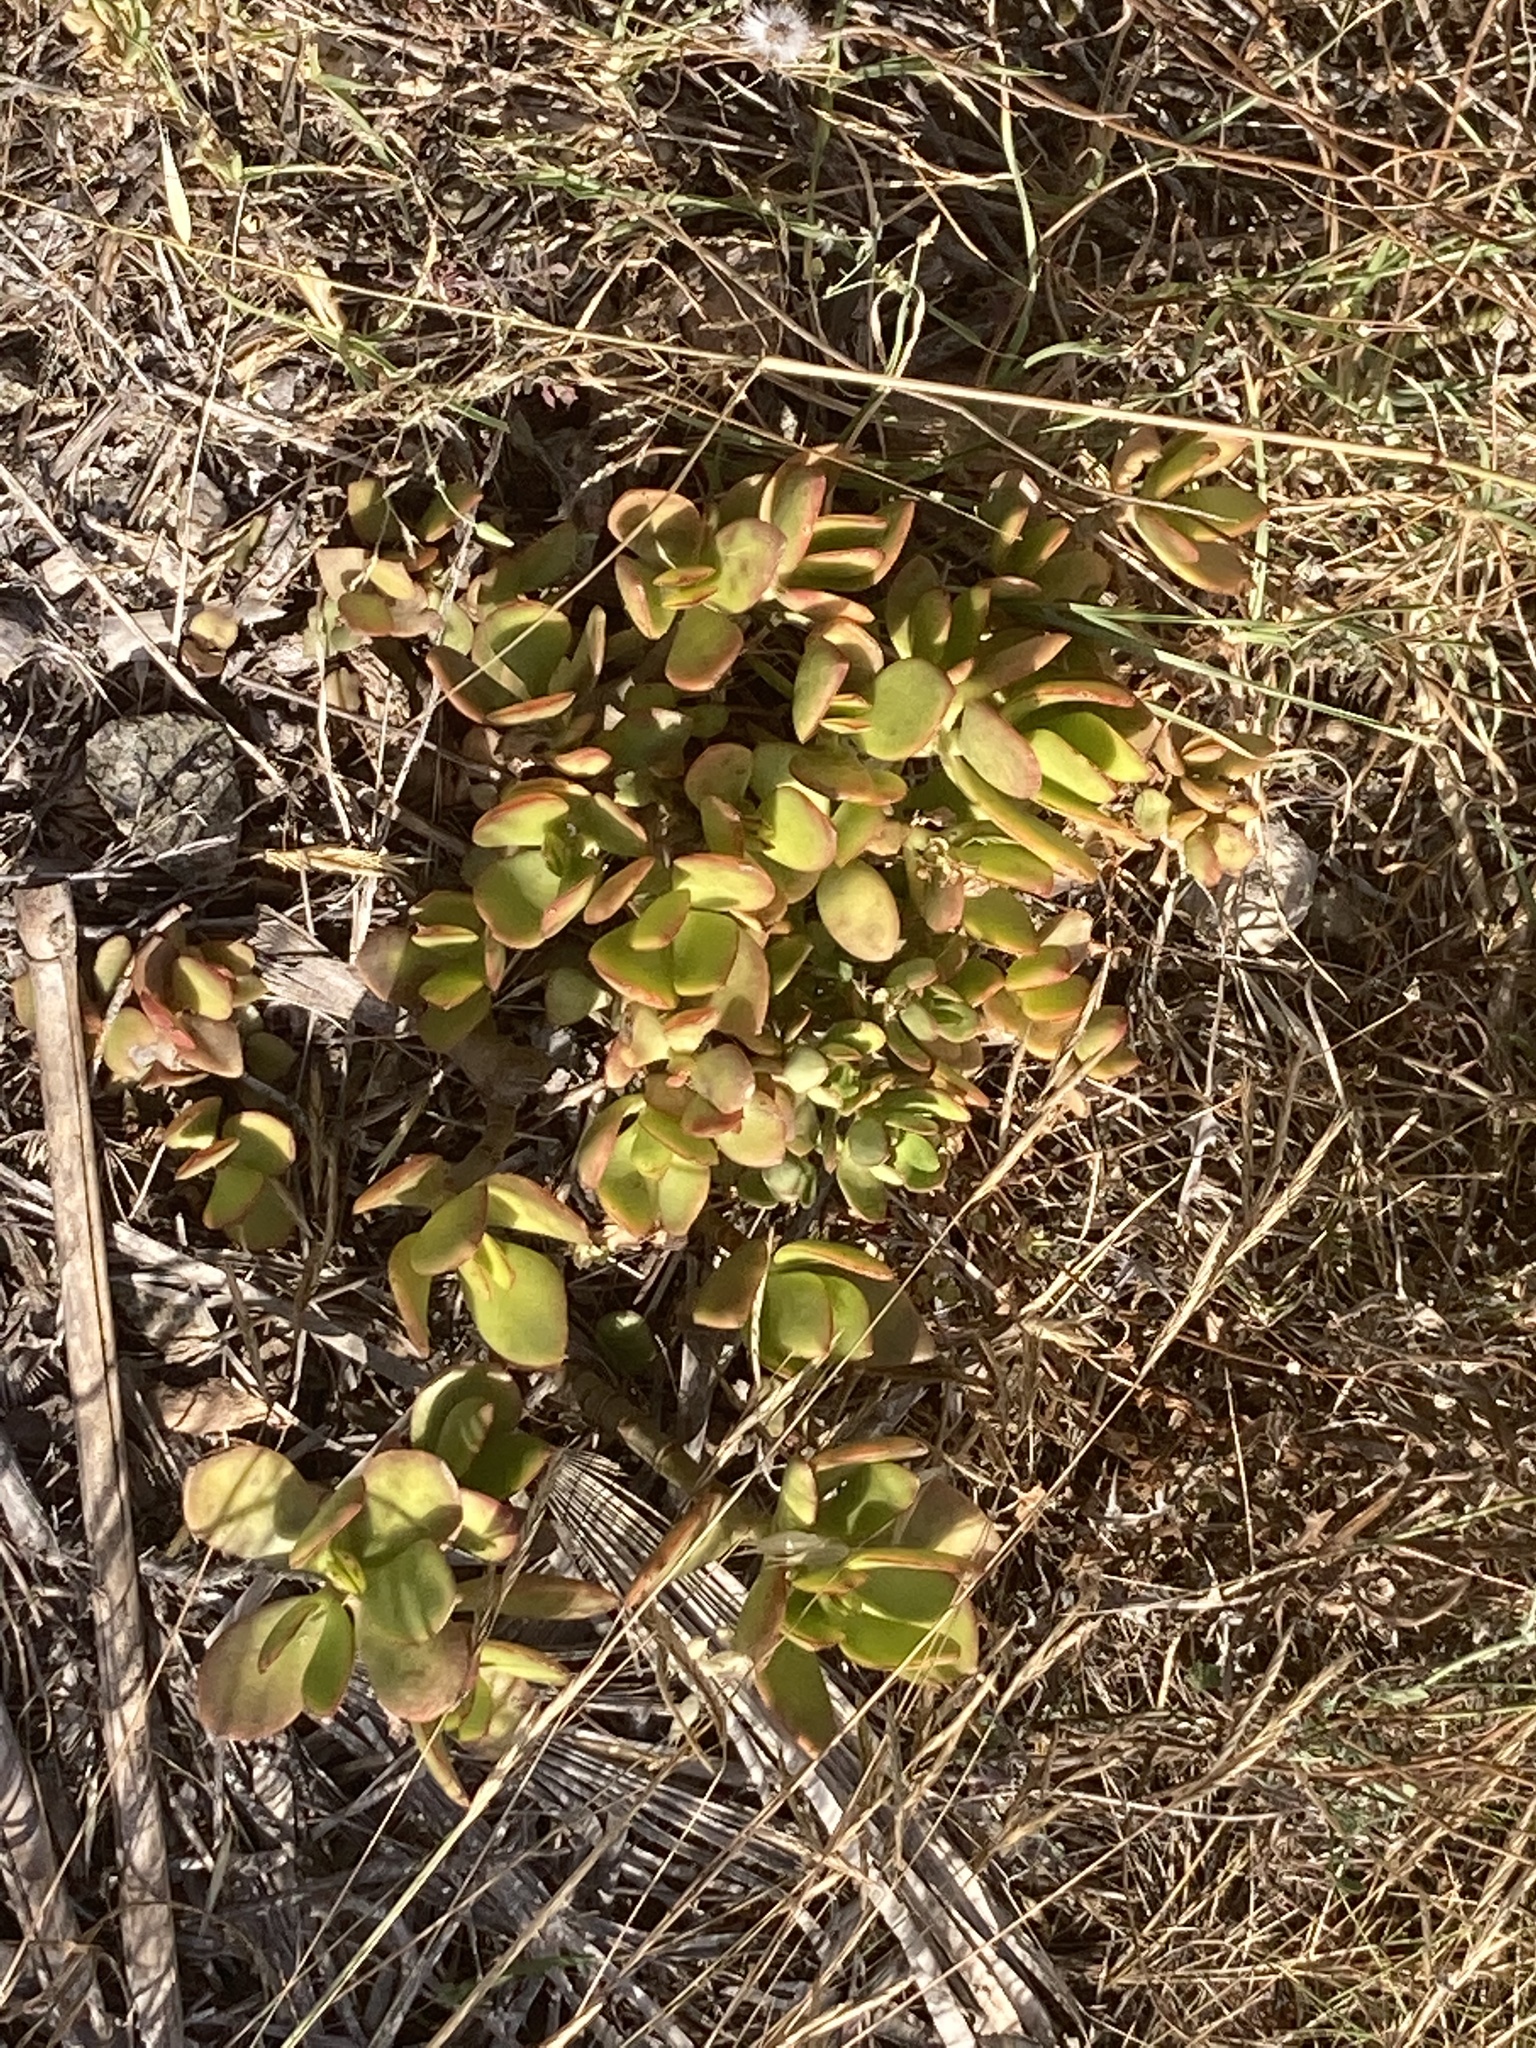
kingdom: Plantae
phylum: Tracheophyta
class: Magnoliopsida
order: Saxifragales
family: Crassulaceae
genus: Crassula
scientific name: Crassula ovata
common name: Jade plant
